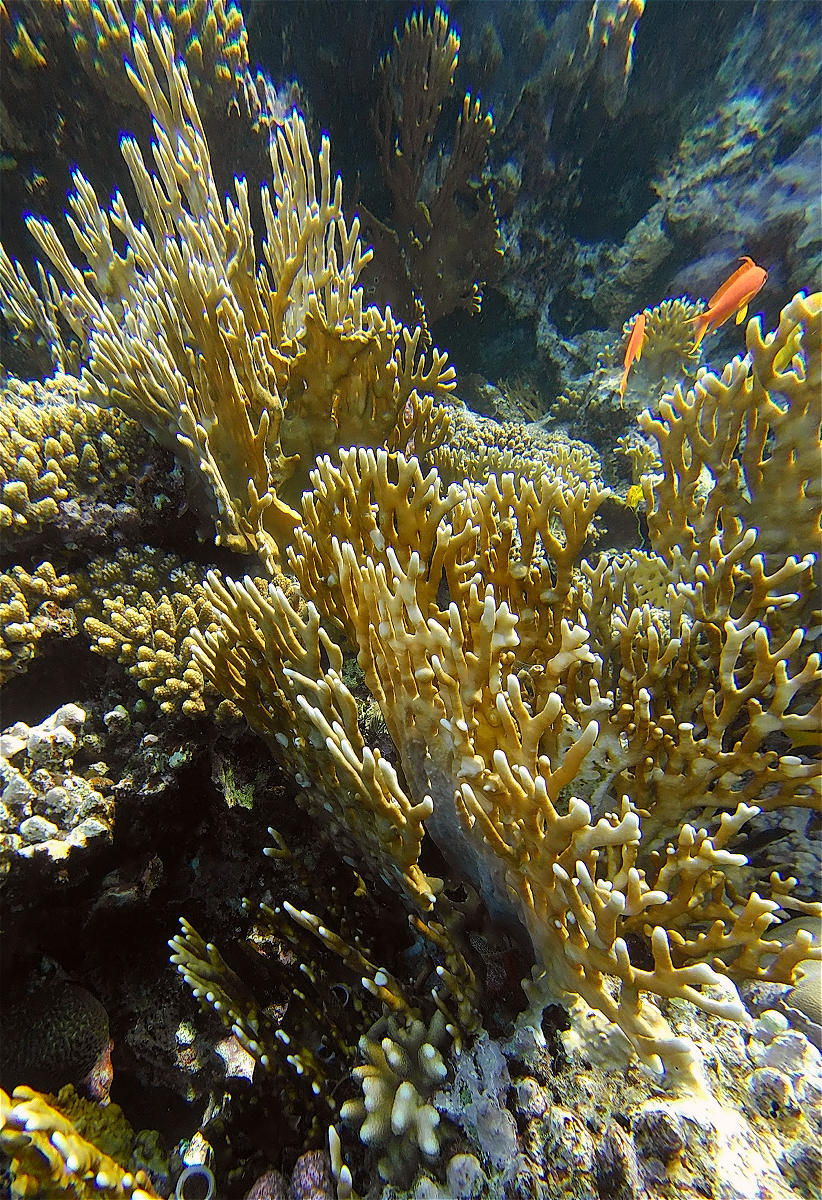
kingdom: Animalia
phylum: Cnidaria
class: Hydrozoa
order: Anthoathecata
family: Milleporidae
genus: Millepora
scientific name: Millepora dichotoma
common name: Ramified fire coral
